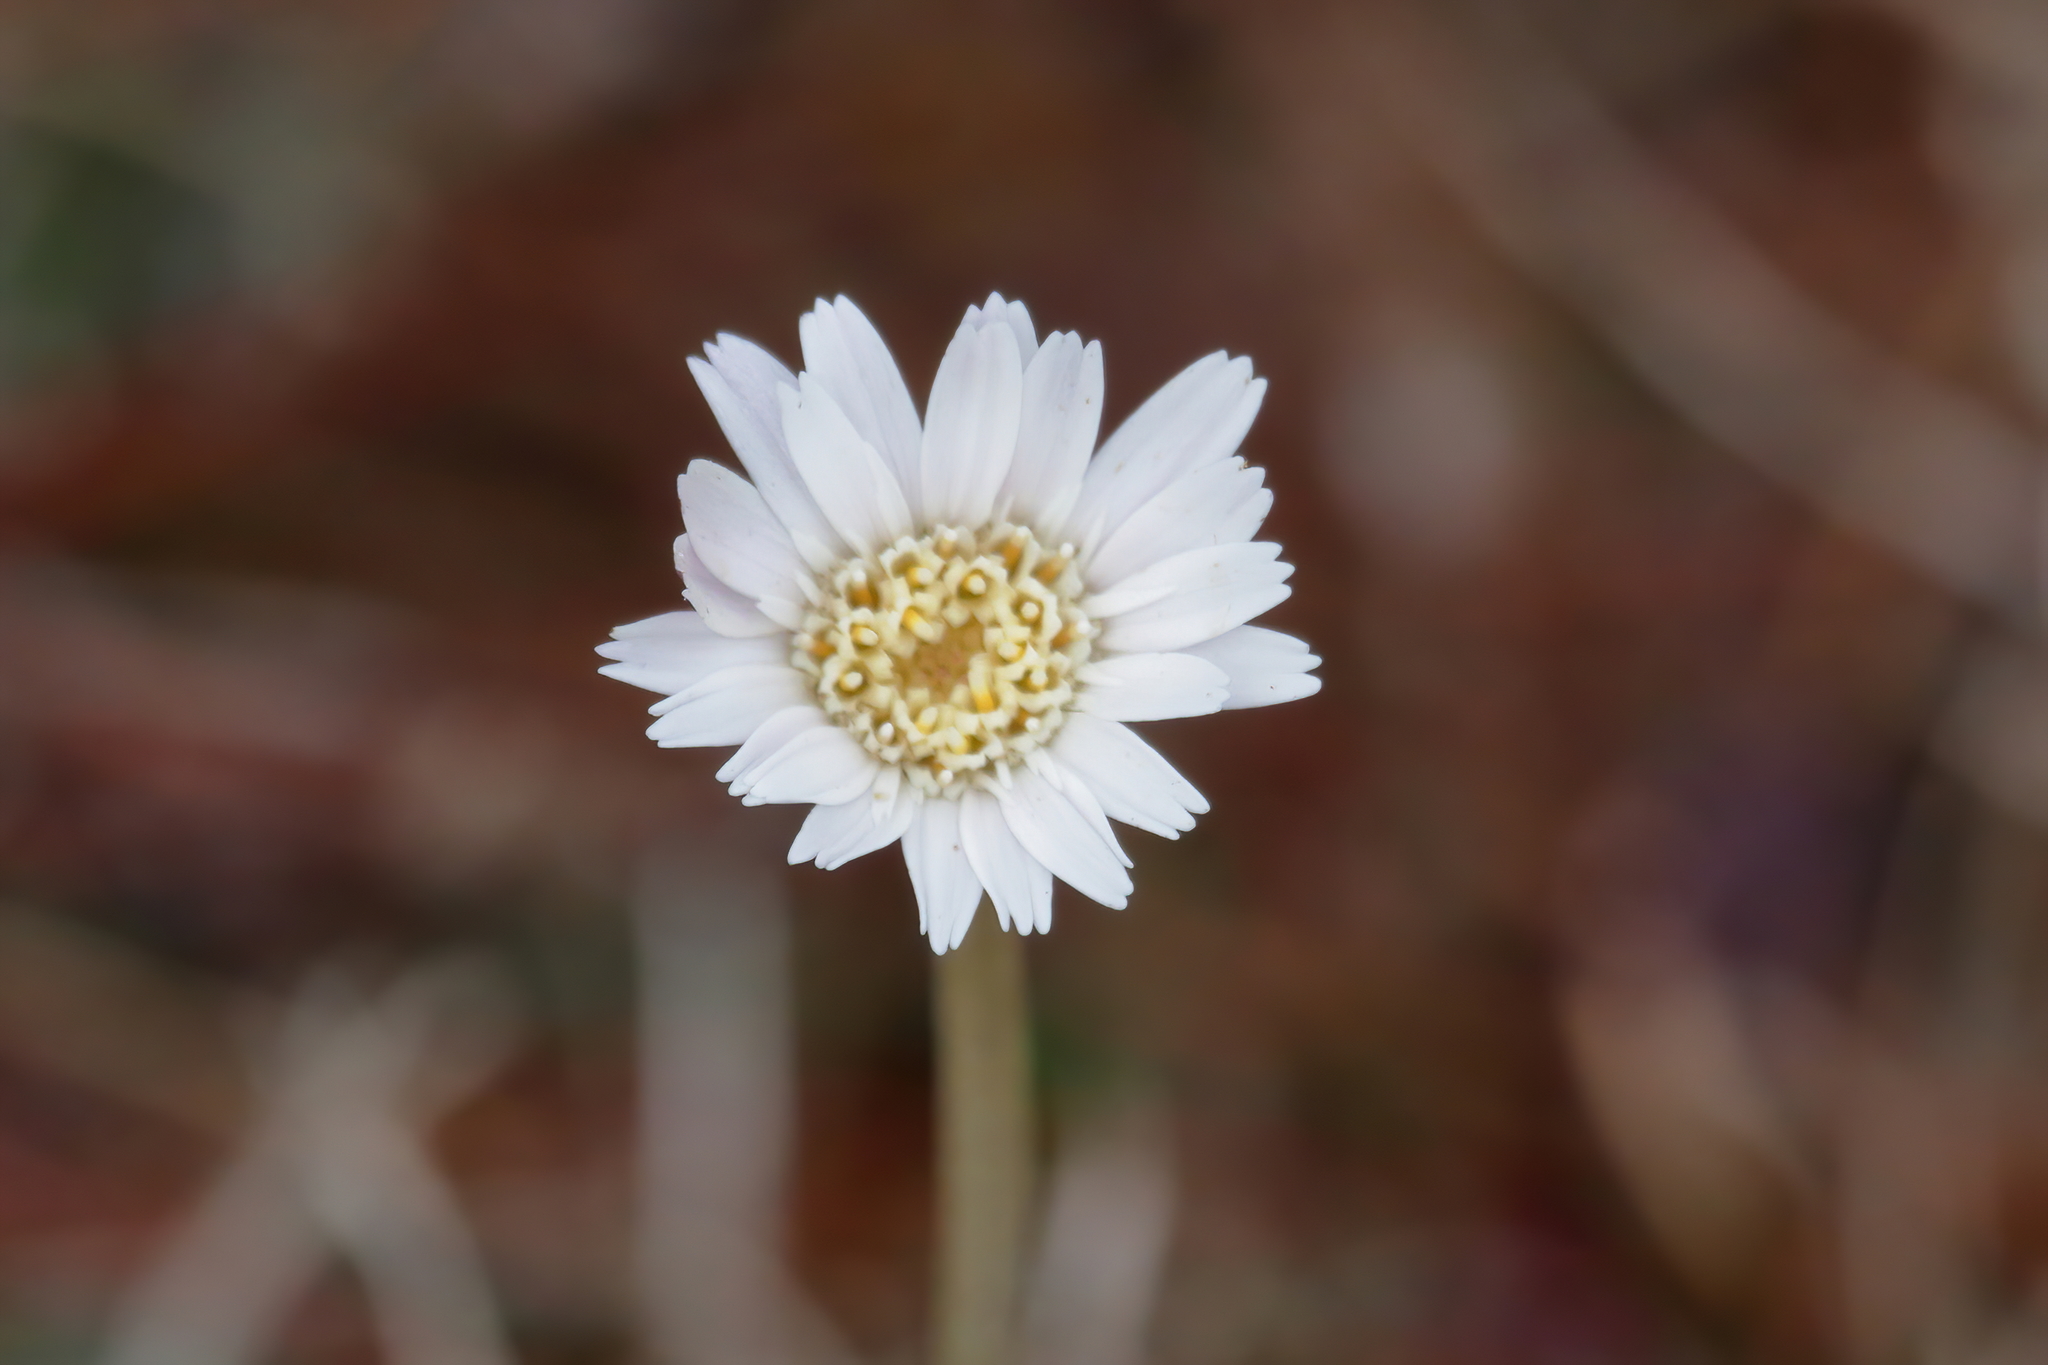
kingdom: Plantae
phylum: Tracheophyta
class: Magnoliopsida
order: Asterales
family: Asteraceae
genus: Chaptalia
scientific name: Chaptalia tomentosa
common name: Woolly sunbonnet
